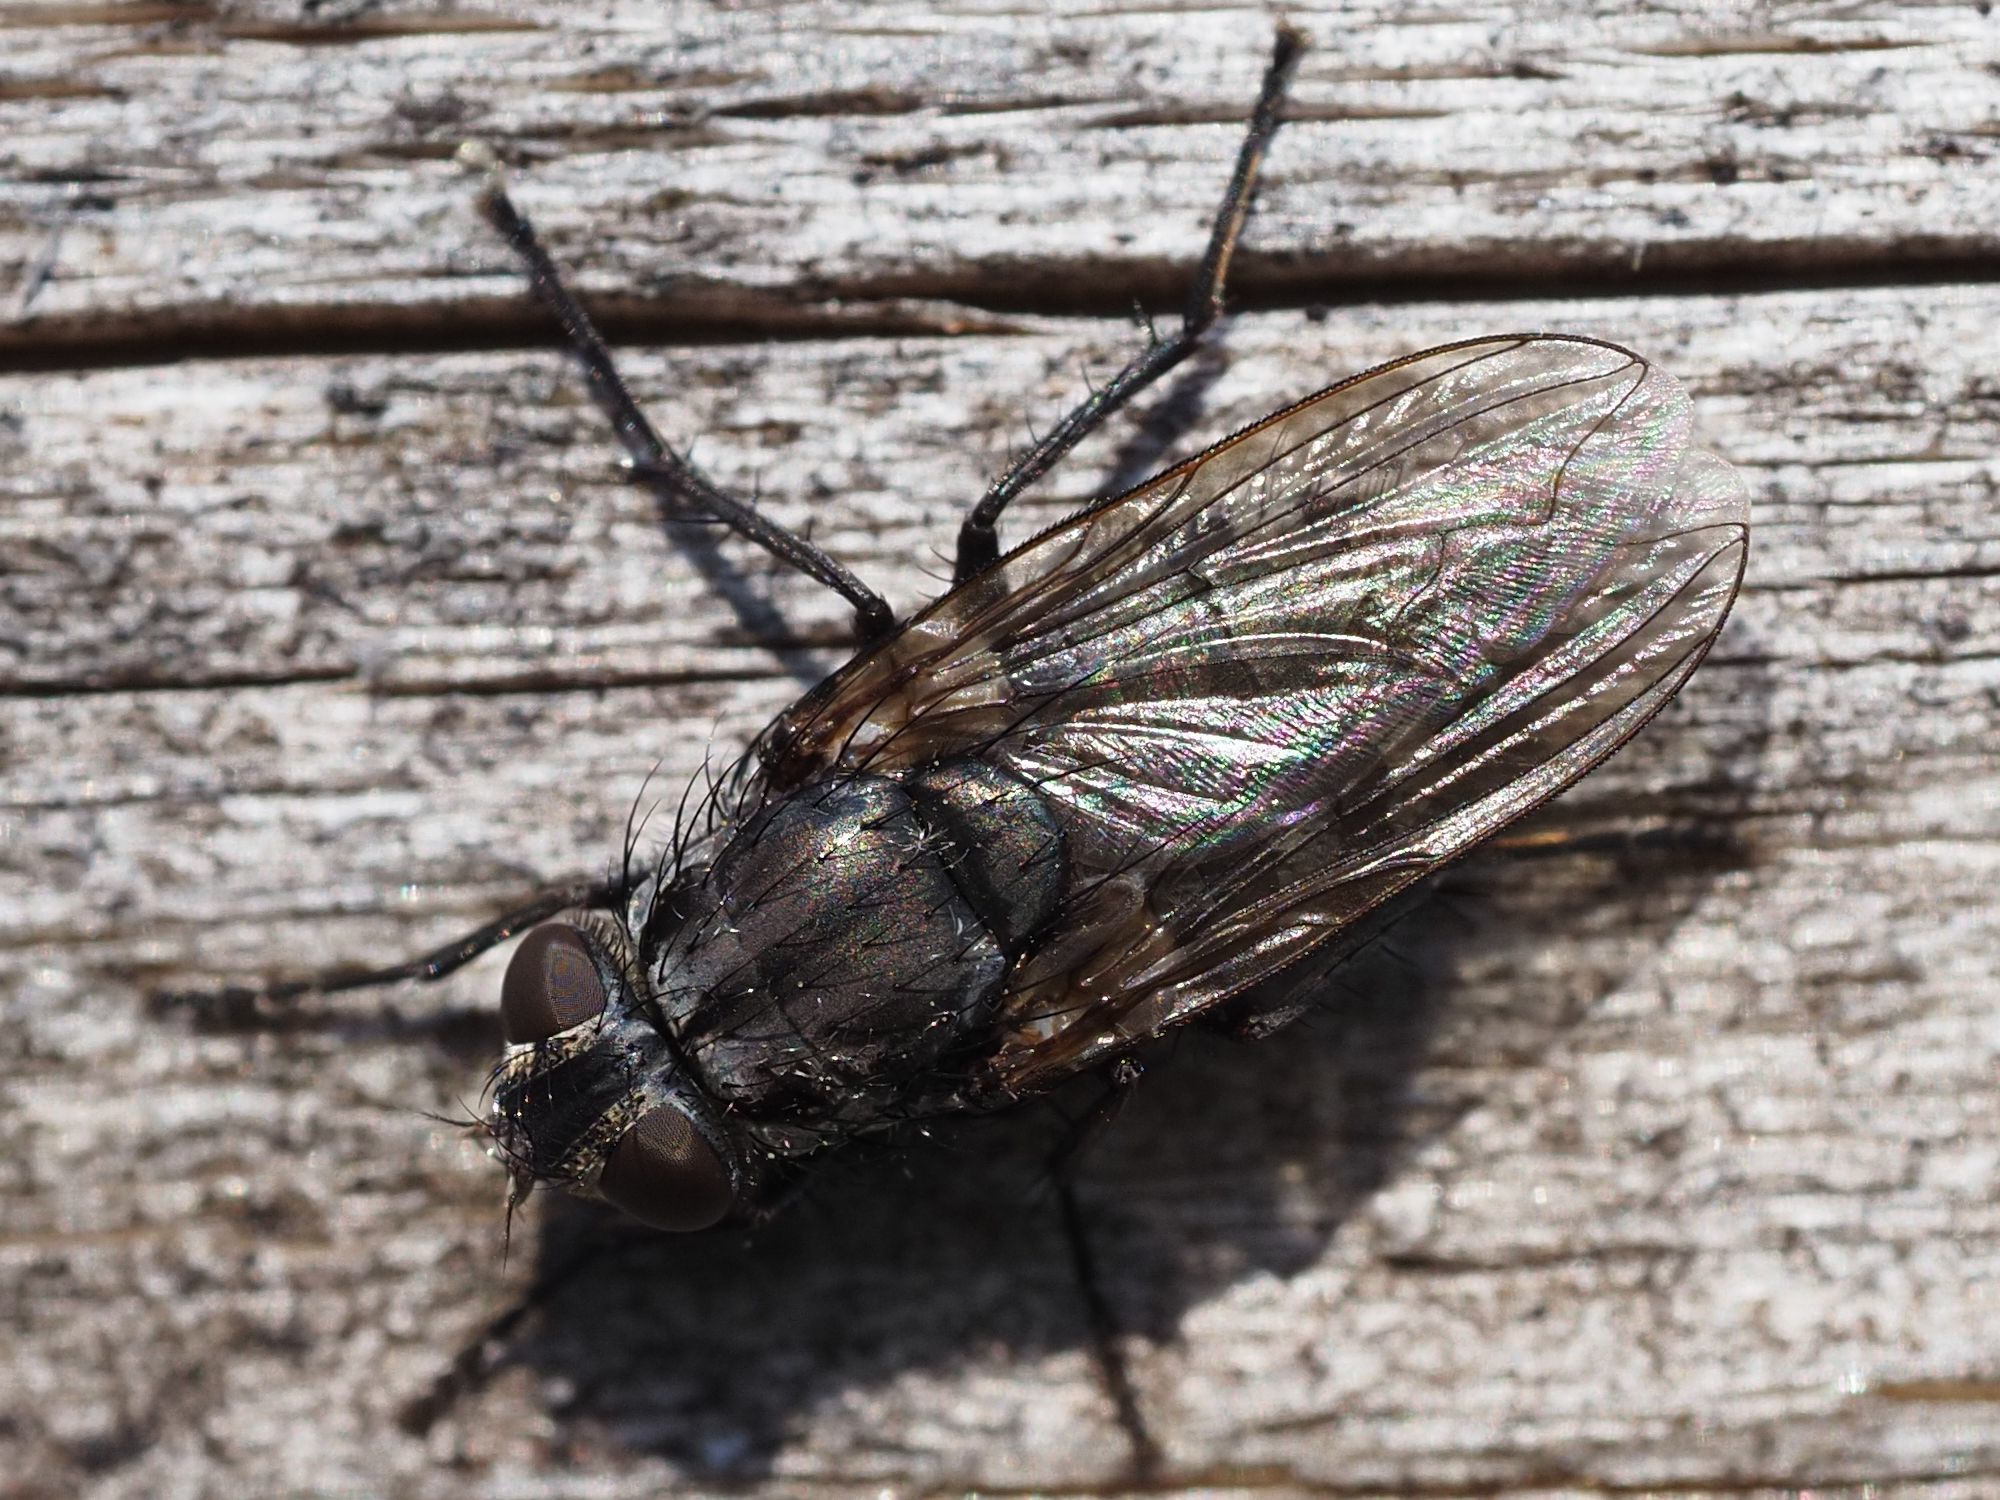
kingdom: Animalia
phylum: Arthropoda
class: Insecta
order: Diptera
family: Polleniidae
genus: Pollenia
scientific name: Pollenia vagabunda
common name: Vagabund cluster fly
